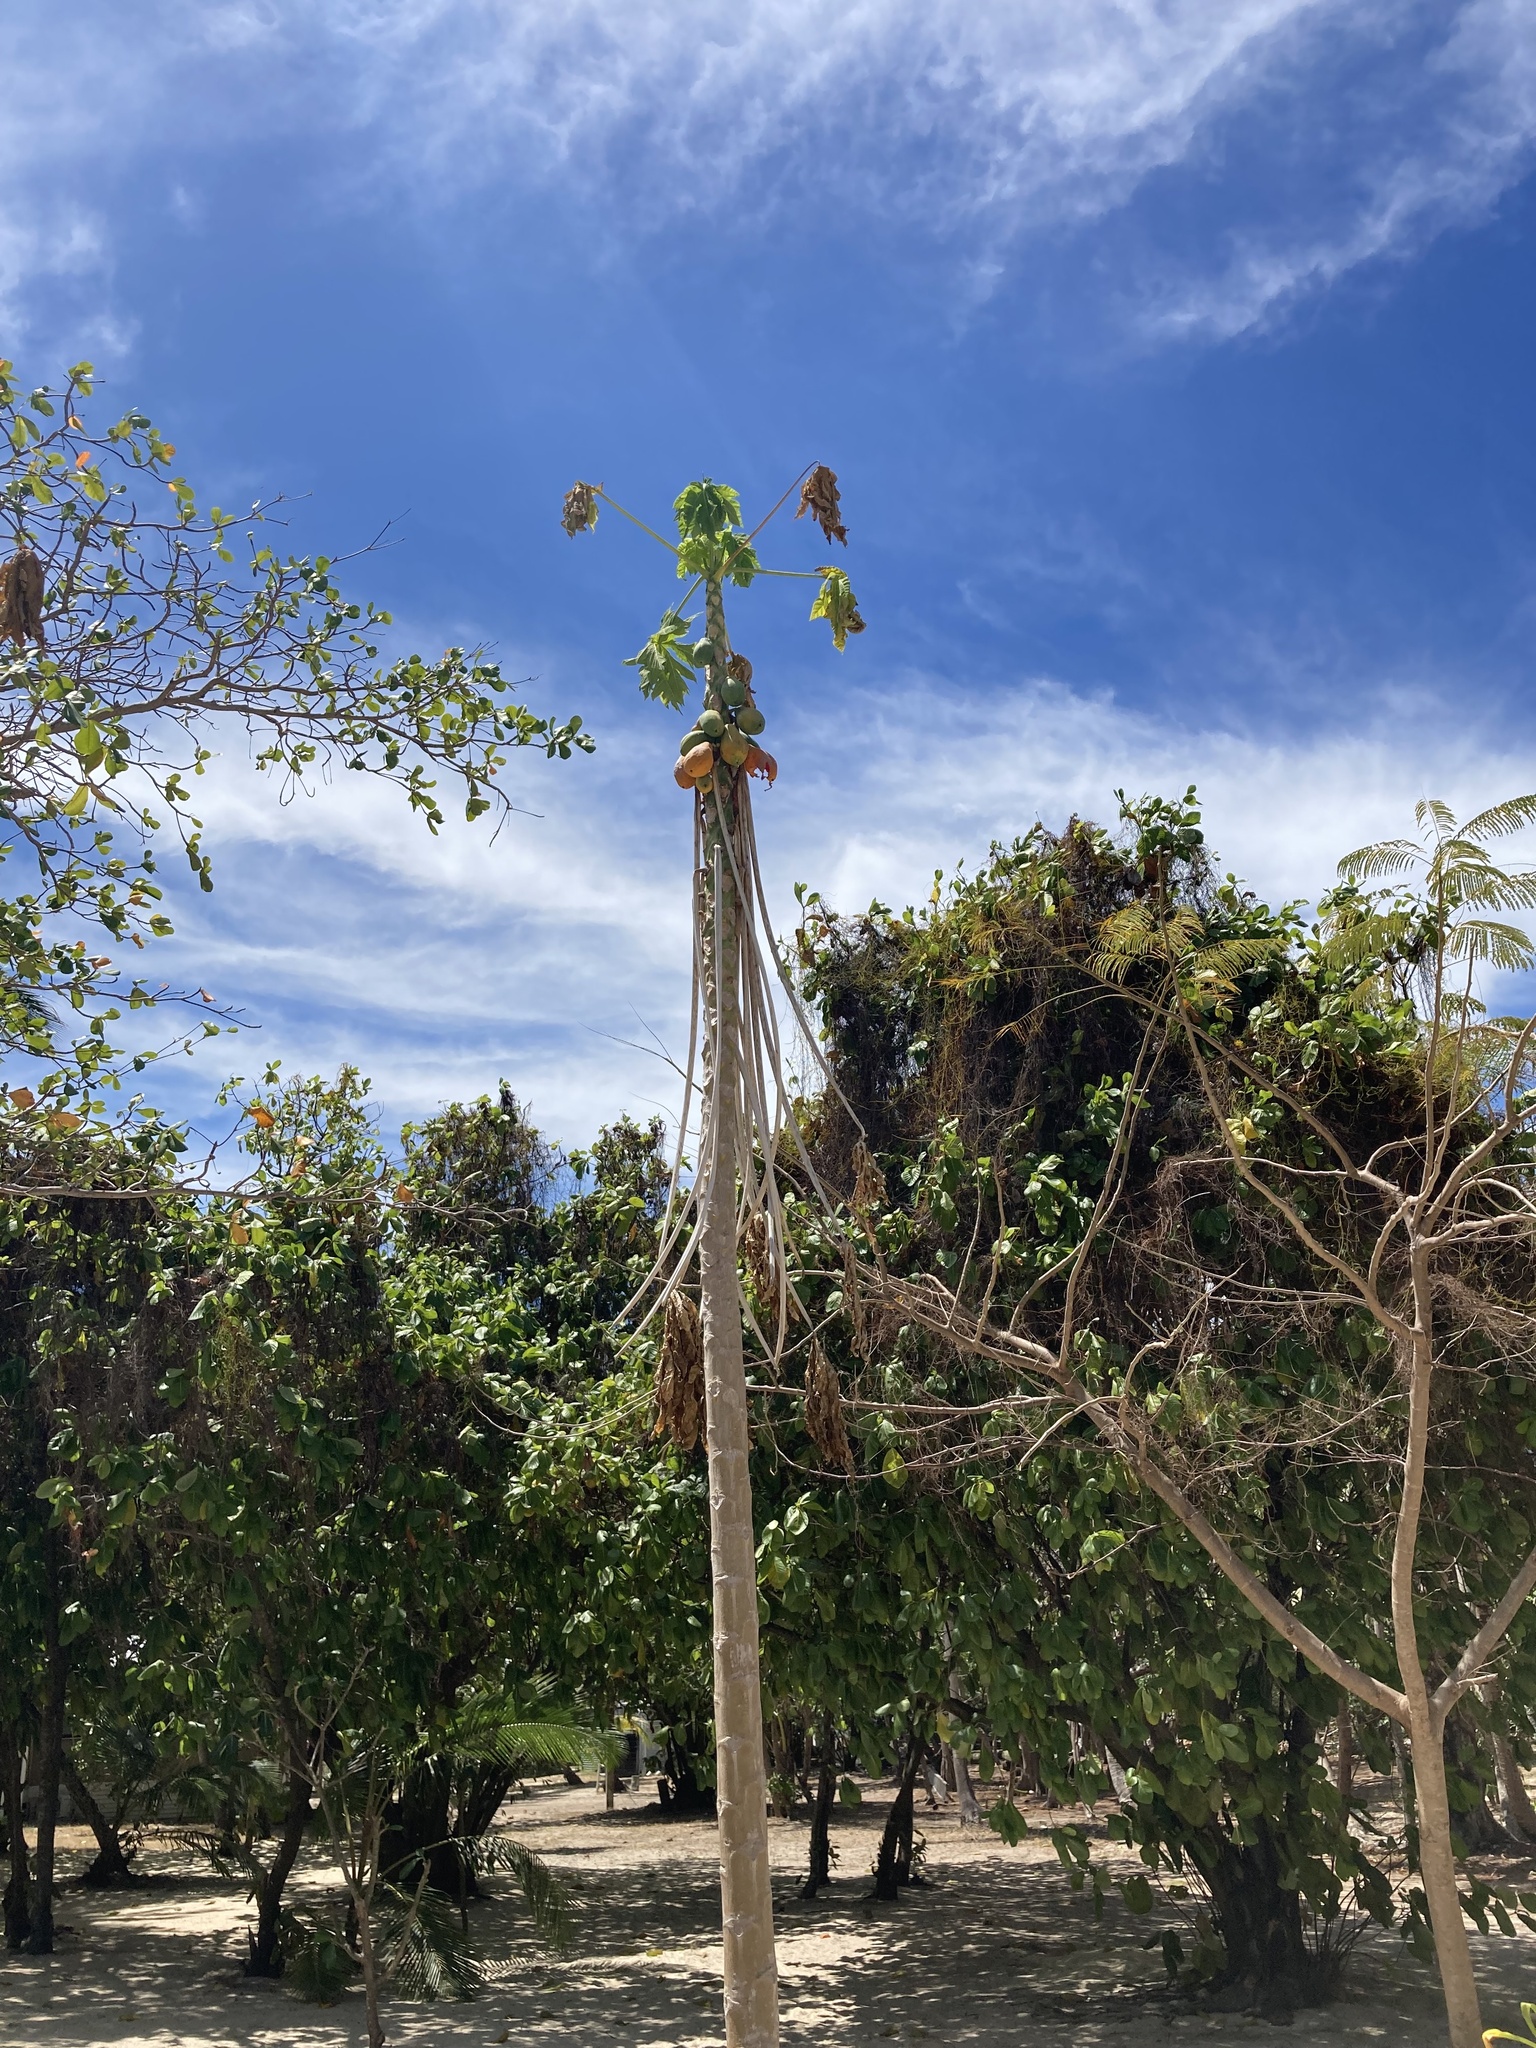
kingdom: Plantae
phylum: Tracheophyta
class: Magnoliopsida
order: Brassicales
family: Caricaceae
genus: Carica
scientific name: Carica papaya
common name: Papaya
